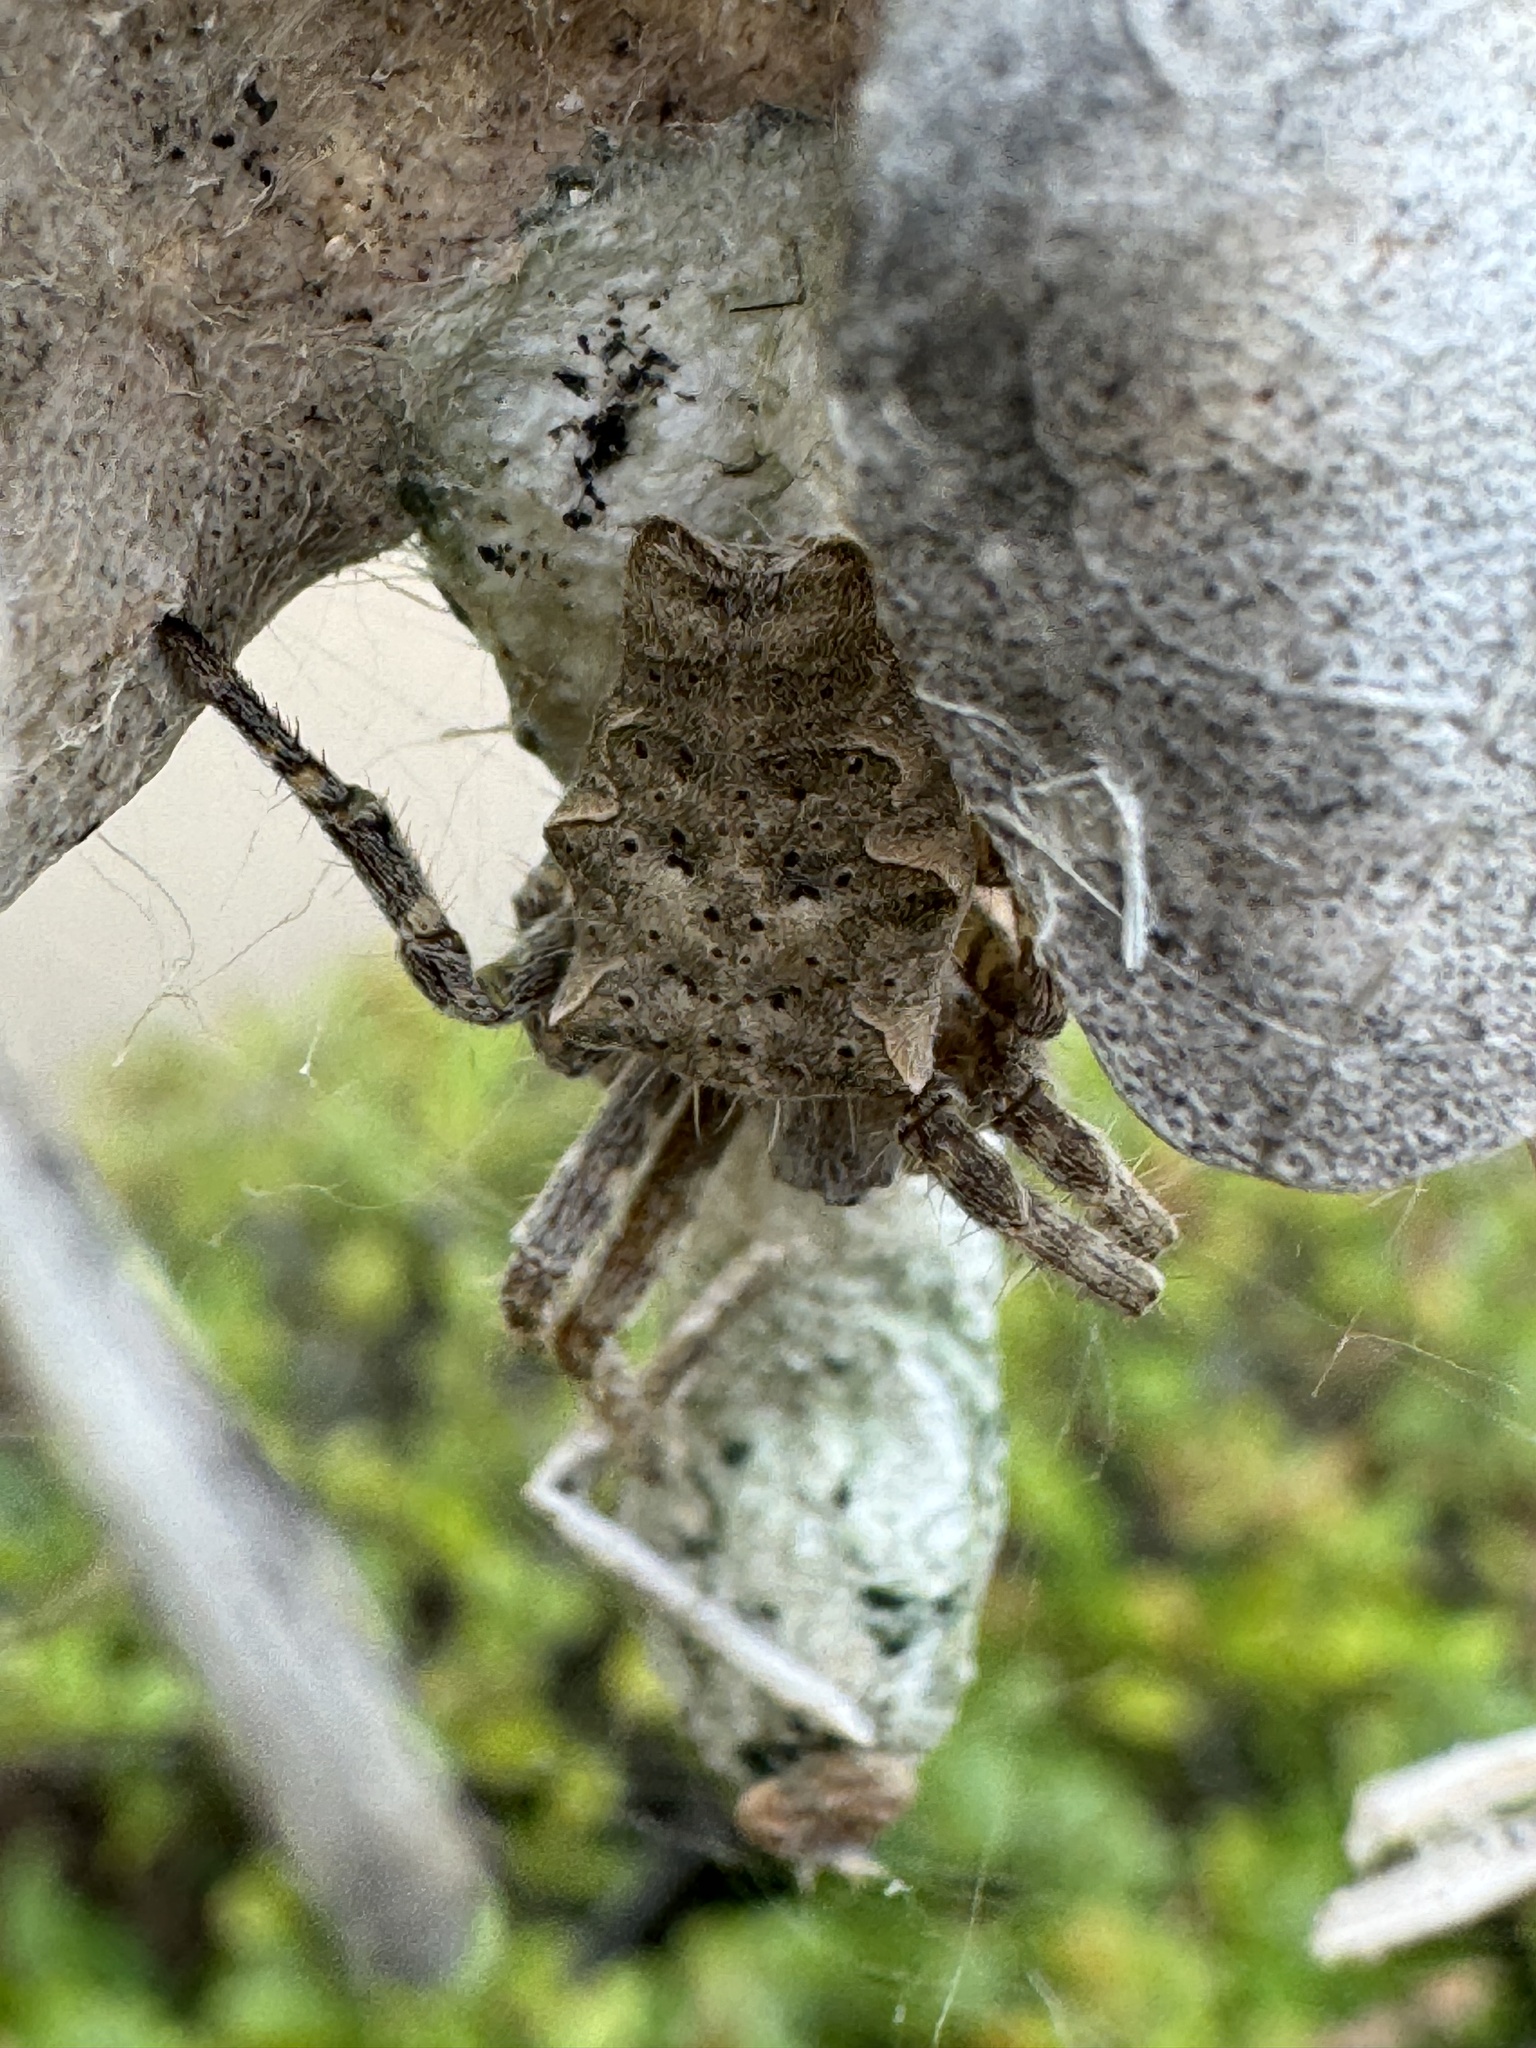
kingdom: Animalia
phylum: Arthropoda
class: Arachnida
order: Araneae
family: Araneidae
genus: Cyrtophora
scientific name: Cyrtophora citricola
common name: Orb weavers
